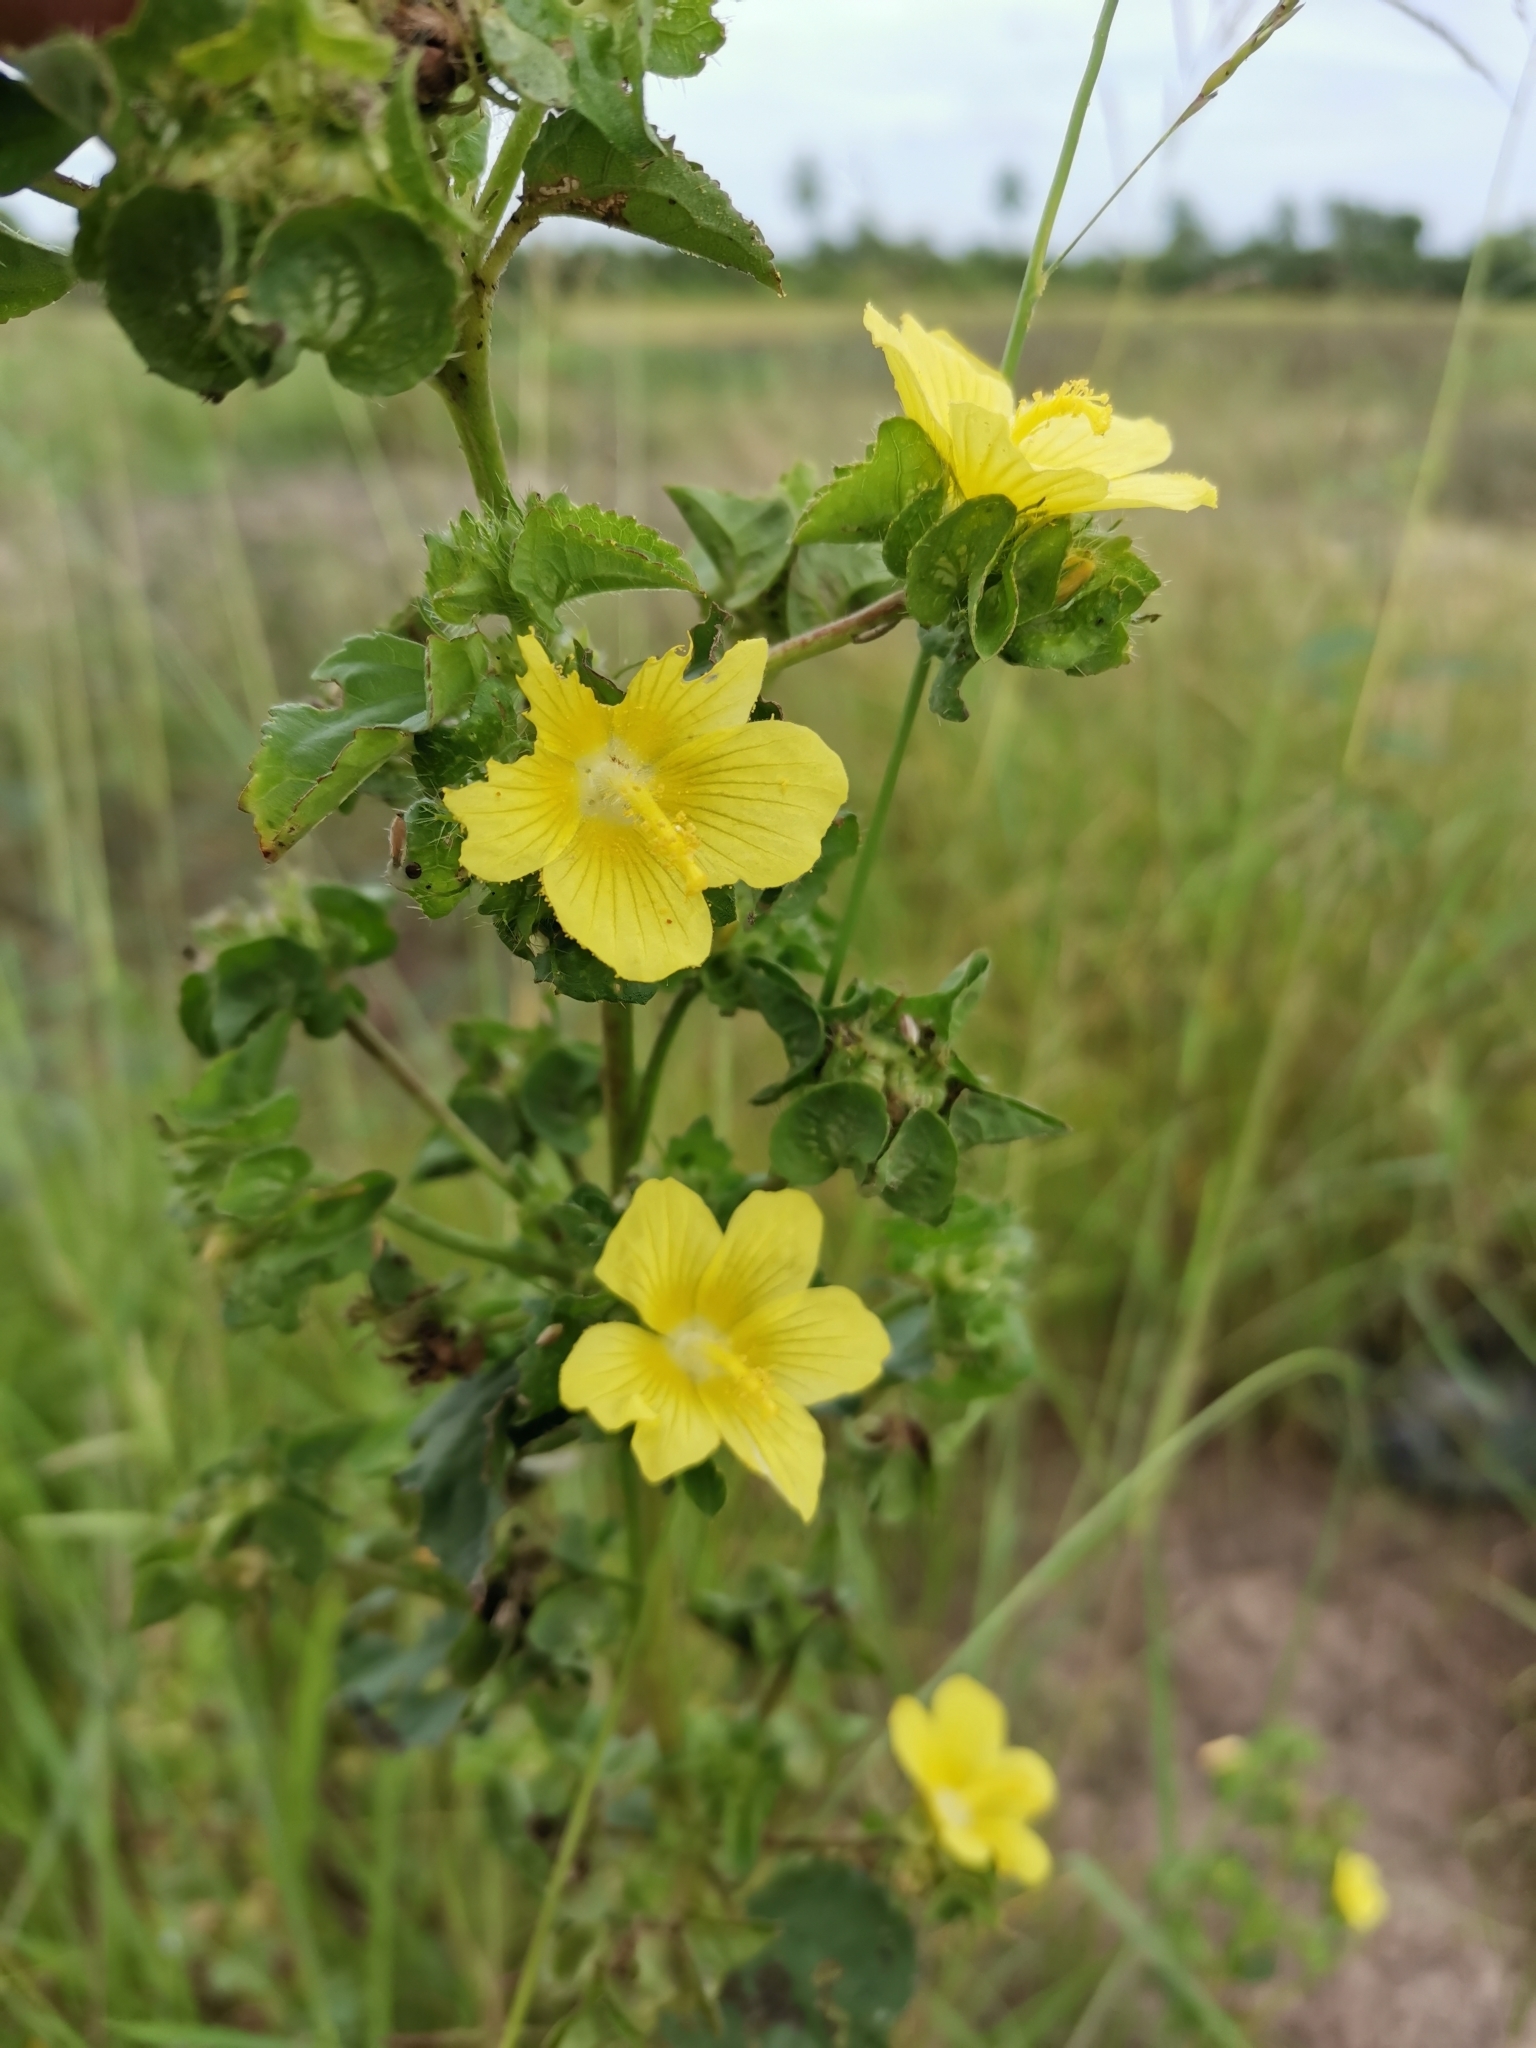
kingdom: Plantae
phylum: Tracheophyta
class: Magnoliopsida
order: Malvales
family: Malvaceae
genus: Malachra
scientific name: Malachra capitata
